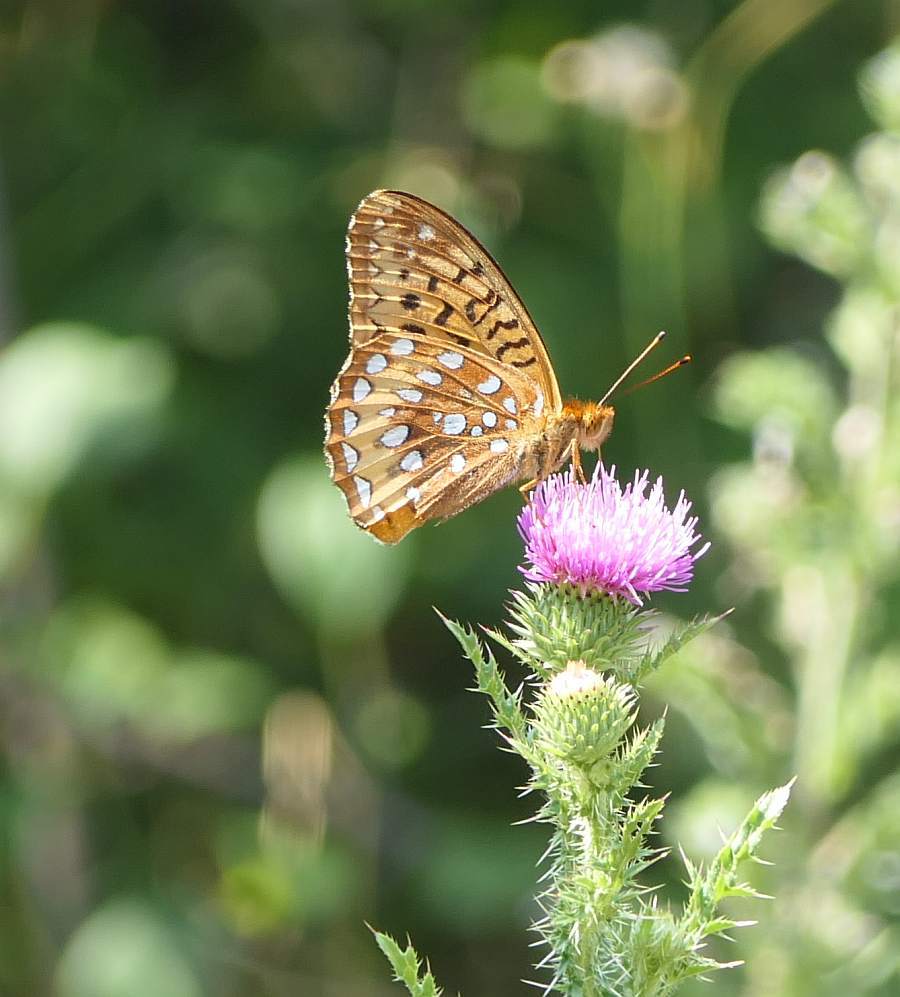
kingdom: Animalia
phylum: Arthropoda
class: Insecta
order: Lepidoptera
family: Nymphalidae
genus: Speyeria
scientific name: Speyeria cybele
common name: Great spangled fritillary
